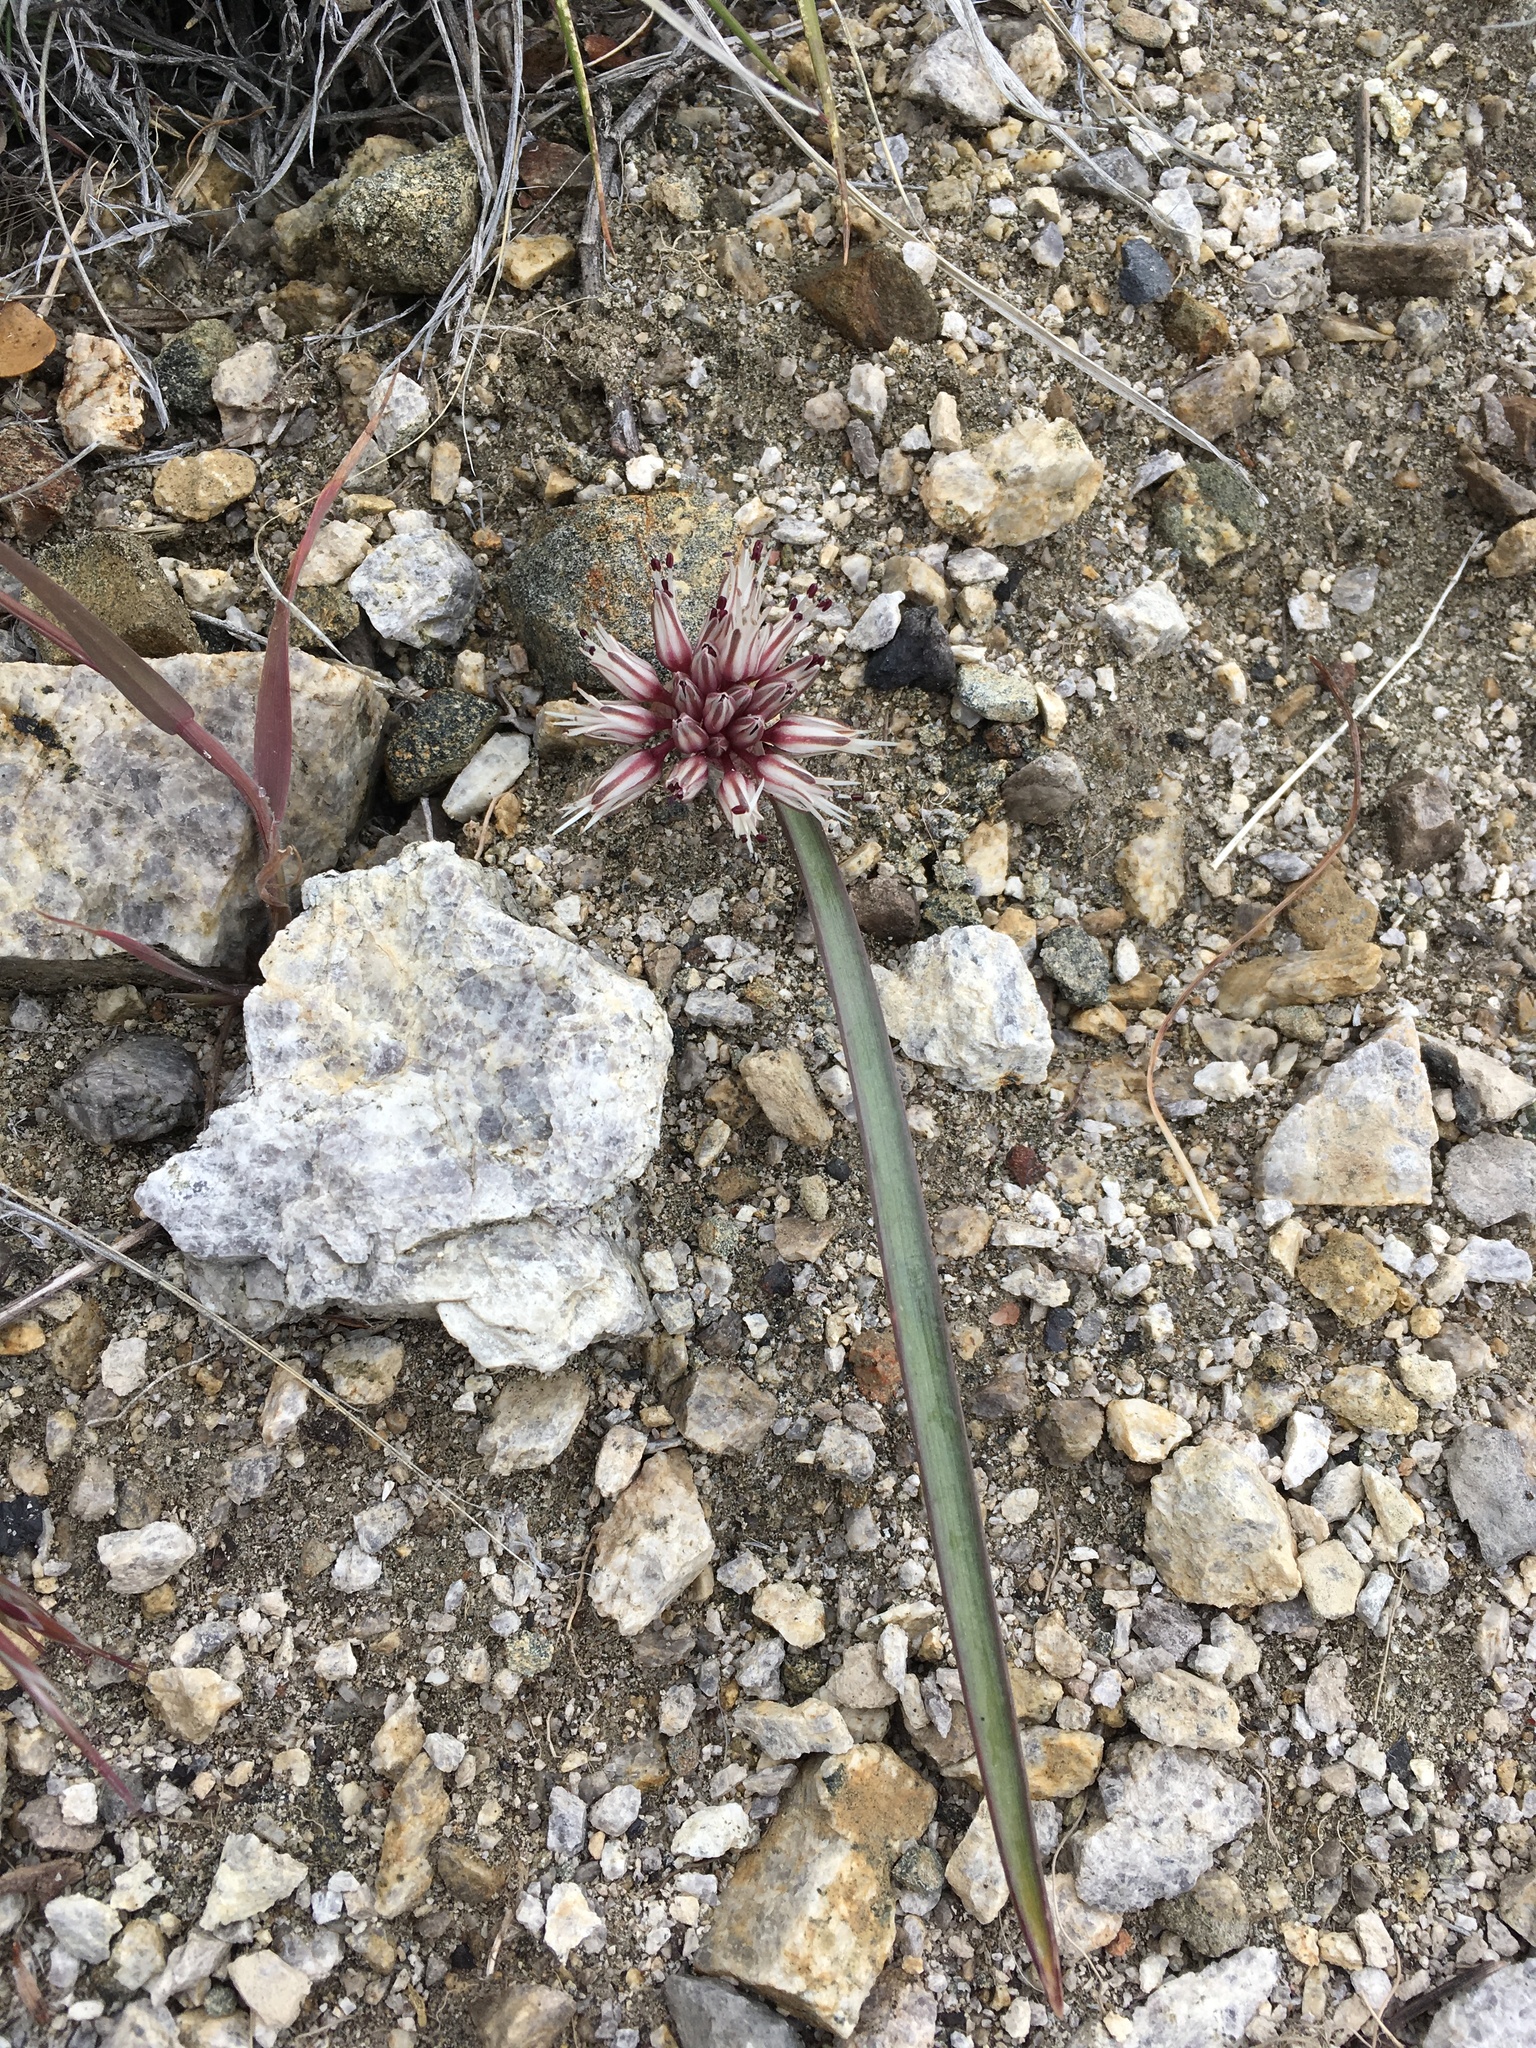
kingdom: Plantae
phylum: Tracheophyta
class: Liliopsida
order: Asparagales
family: Amaryllidaceae
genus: Allium
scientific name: Allium burlewii
